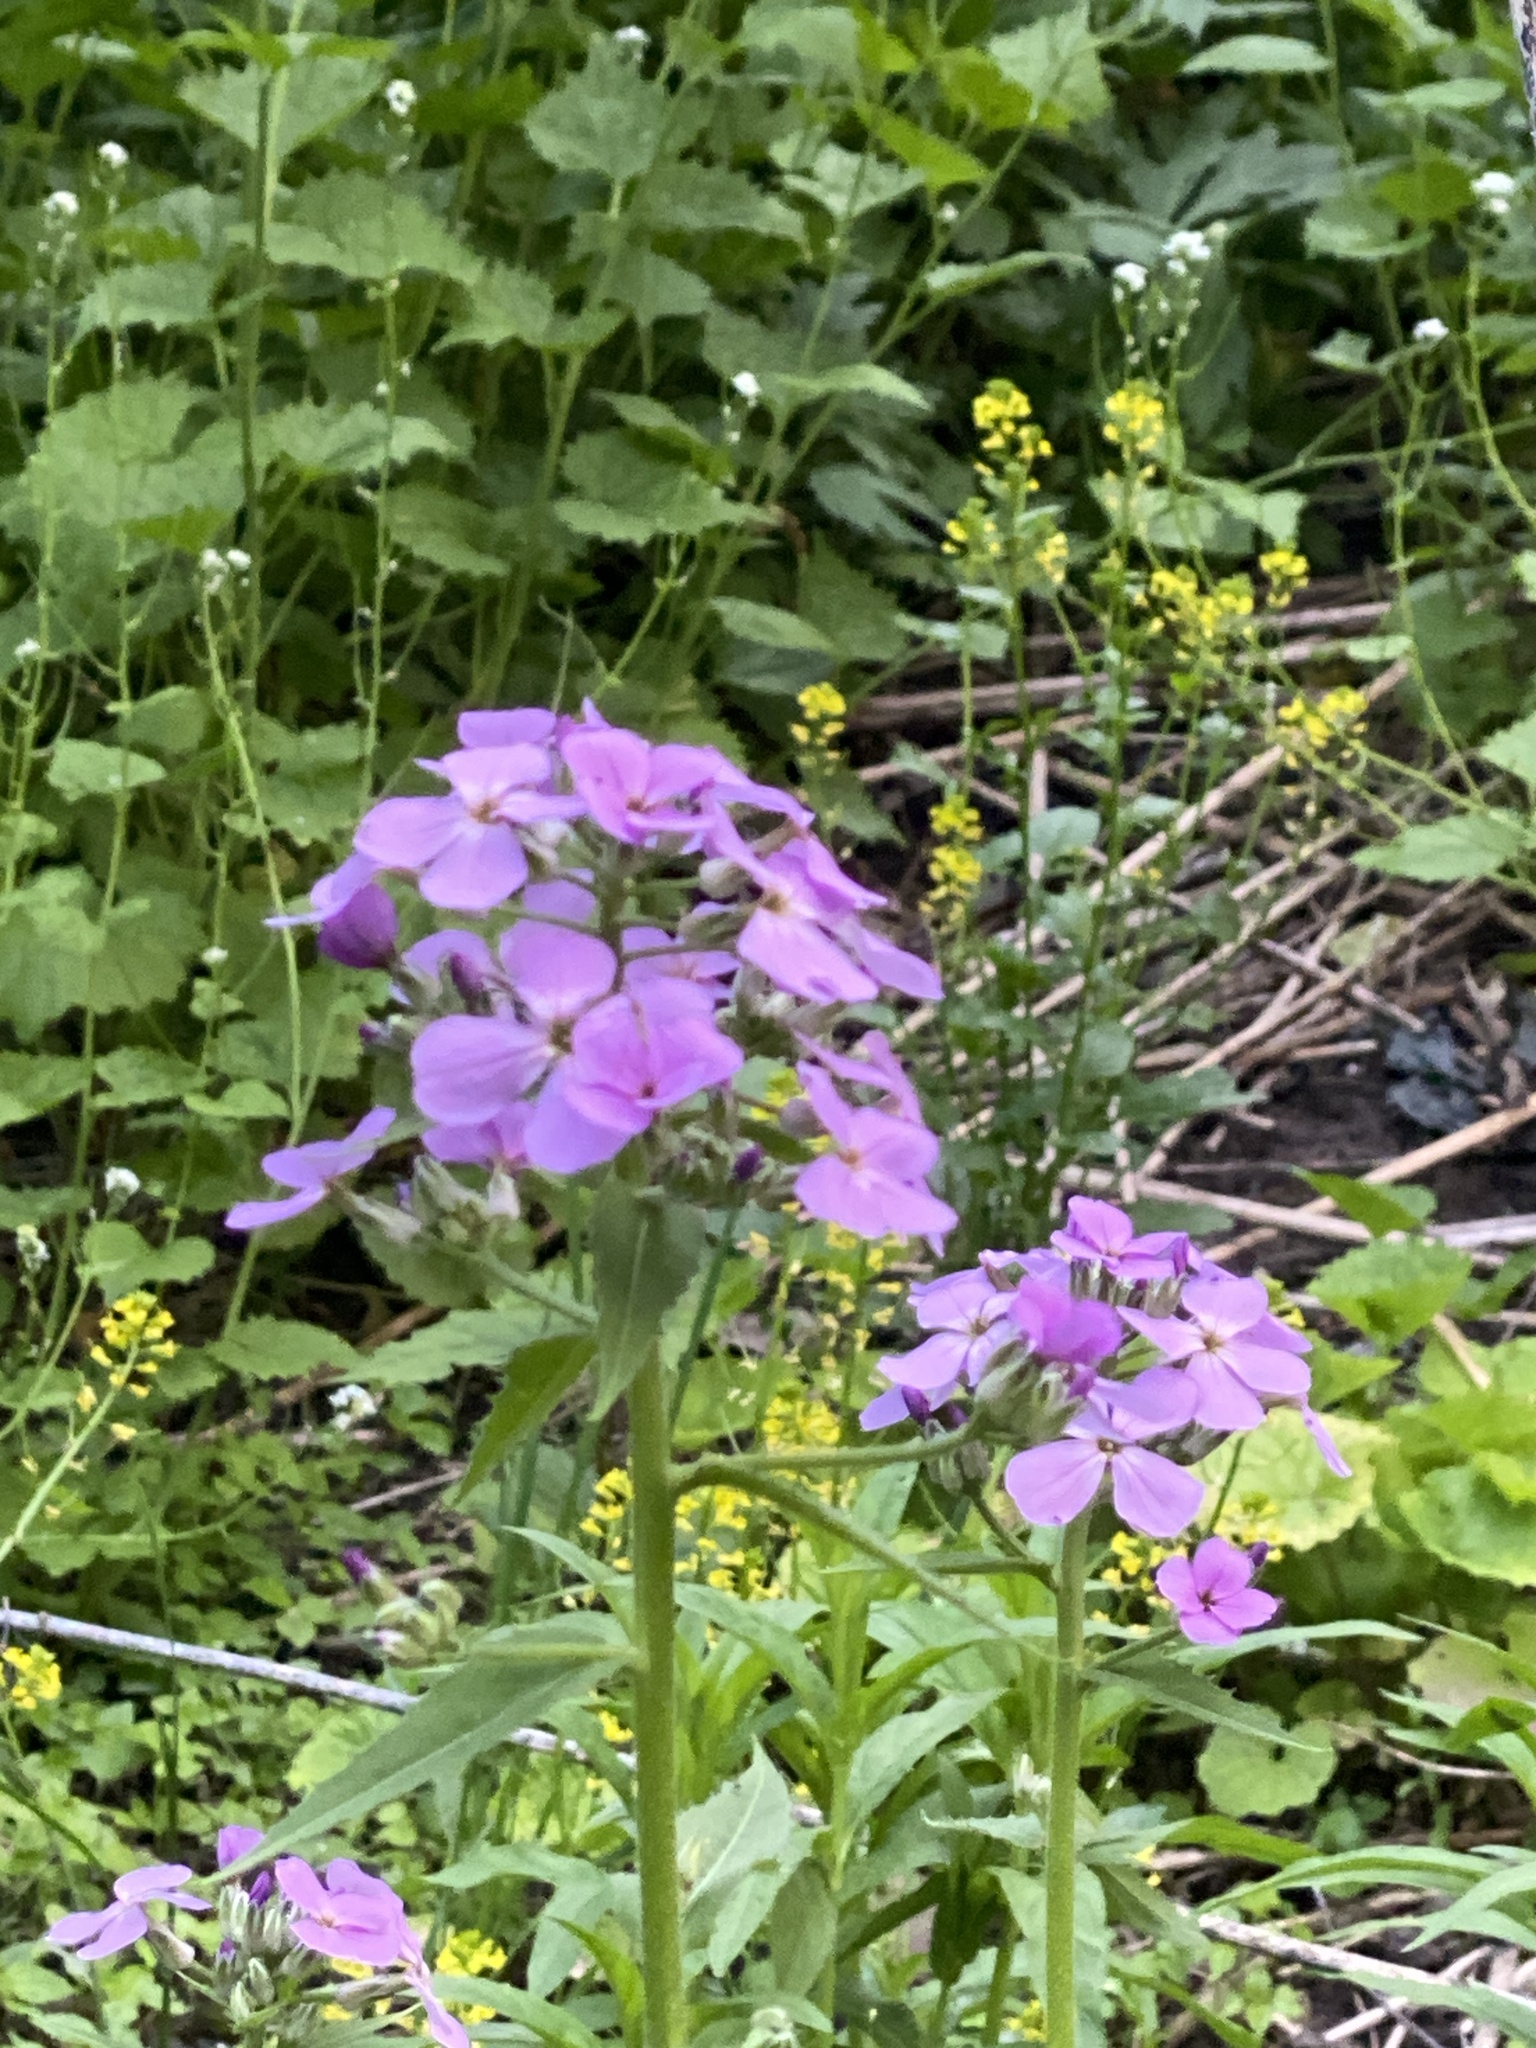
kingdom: Plantae
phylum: Tracheophyta
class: Magnoliopsida
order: Brassicales
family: Brassicaceae
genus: Hesperis
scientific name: Hesperis matronalis
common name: Dame's-violet
